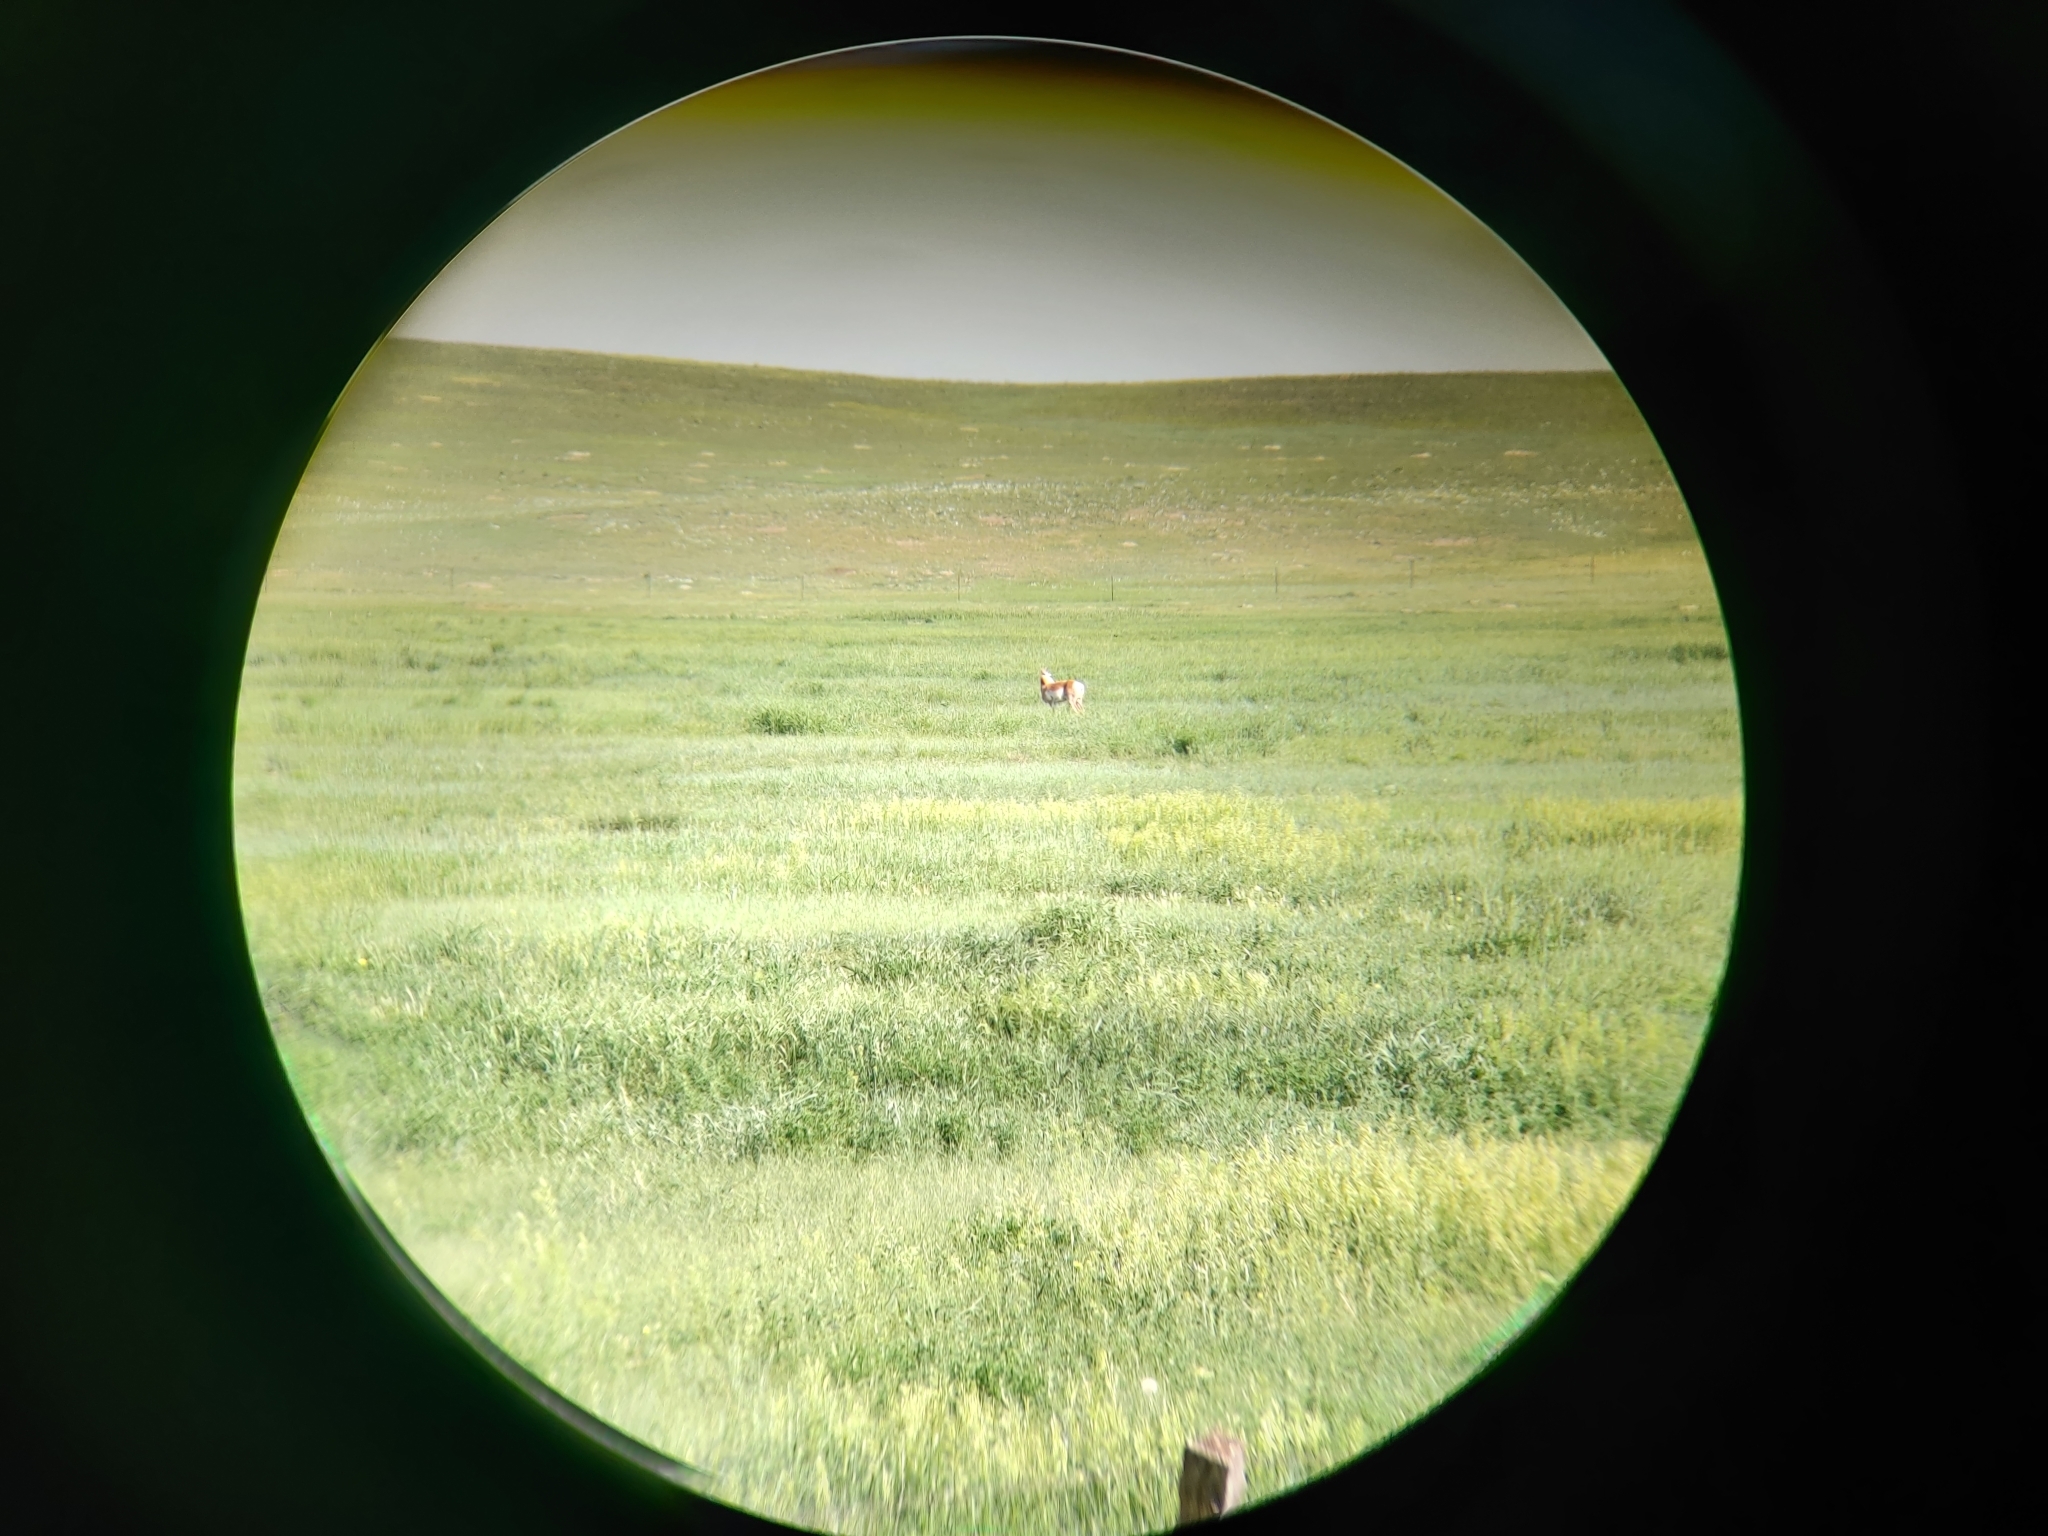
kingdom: Animalia
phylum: Chordata
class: Mammalia
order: Artiodactyla
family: Antilocapridae
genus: Antilocapra
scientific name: Antilocapra americana
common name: Pronghorn
